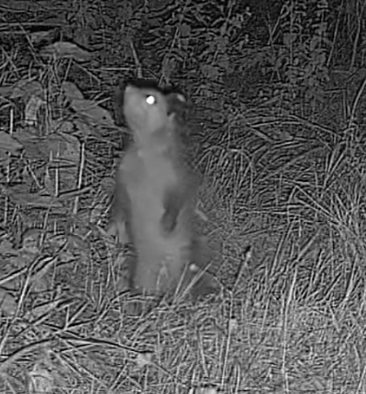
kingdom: Animalia
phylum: Chordata
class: Mammalia
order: Didelphimorphia
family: Didelphidae
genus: Didelphis
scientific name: Didelphis virginiana
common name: Virginia opossum
